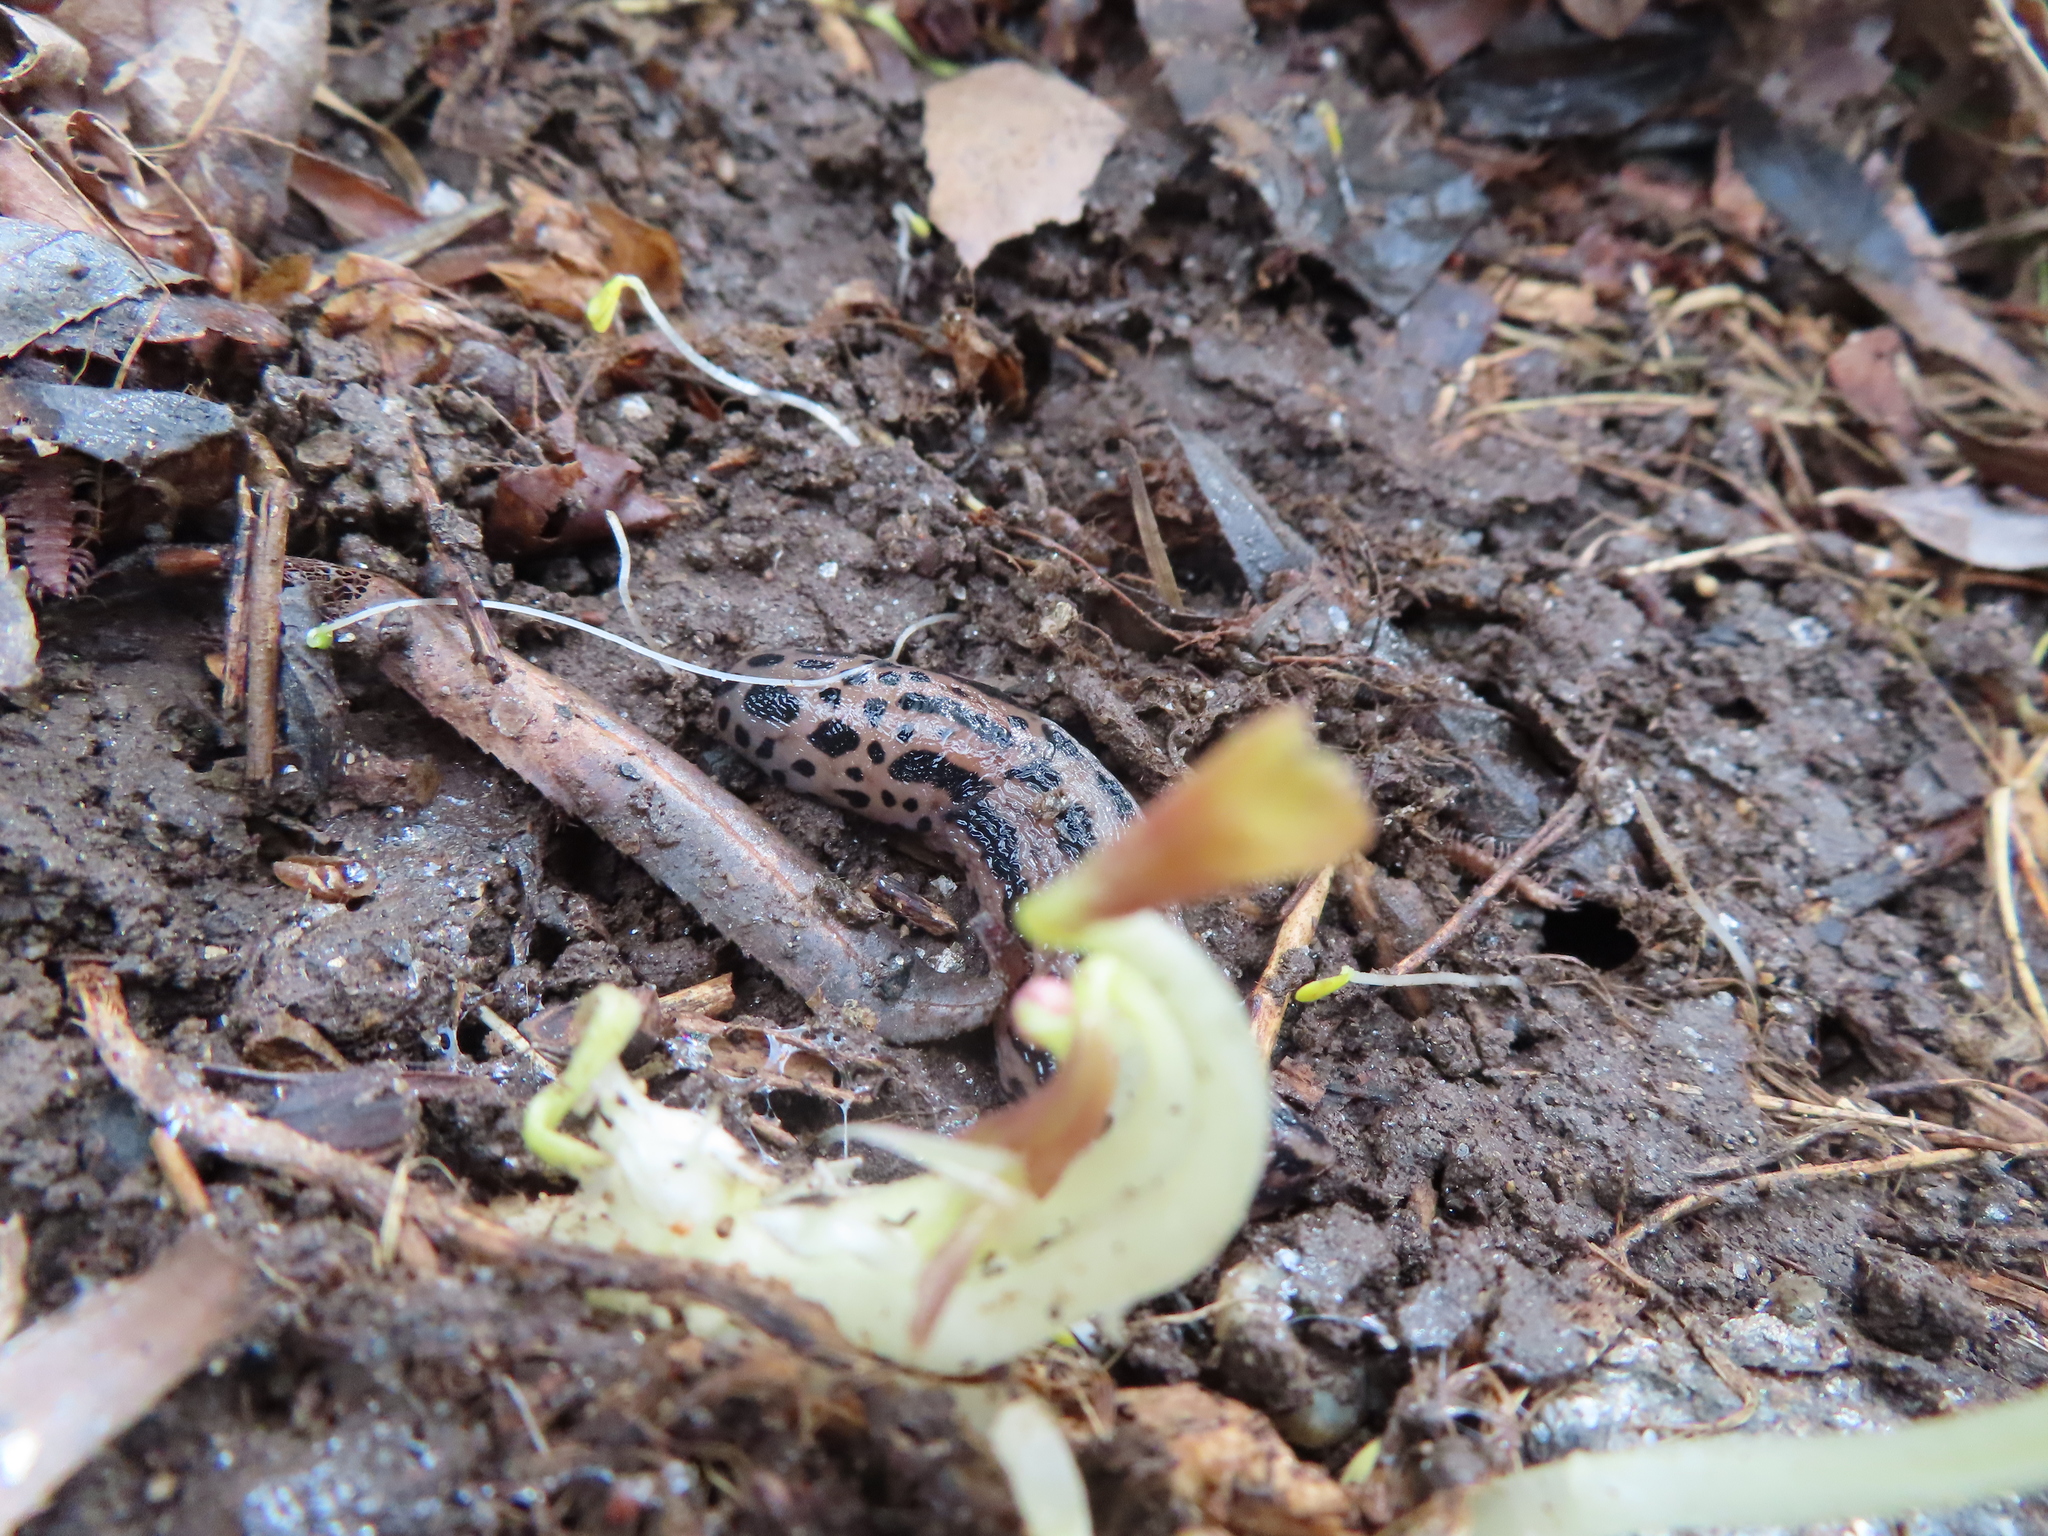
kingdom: Animalia
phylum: Mollusca
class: Gastropoda
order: Stylommatophora
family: Limacidae
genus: Limax
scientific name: Limax maximus
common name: Great grey slug
